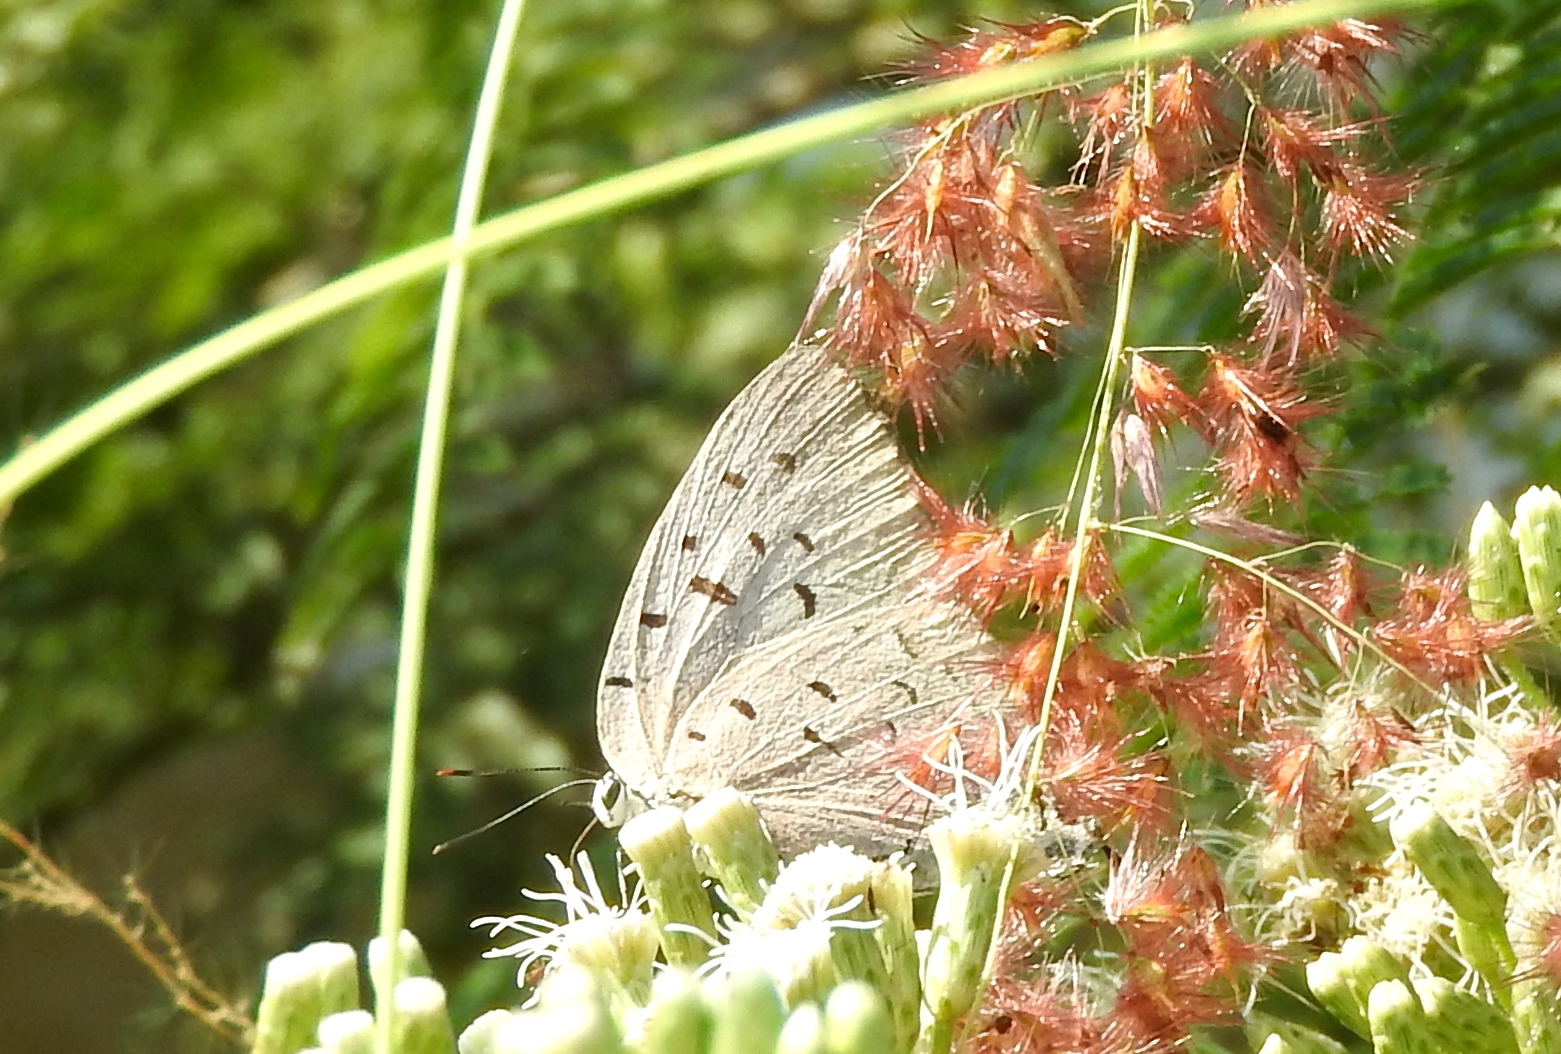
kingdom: Animalia
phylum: Arthropoda
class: Insecta
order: Lepidoptera
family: Lycaenidae
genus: Pseudolycaena
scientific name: Pseudolycaena damo
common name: Sky-blue hairstreak
